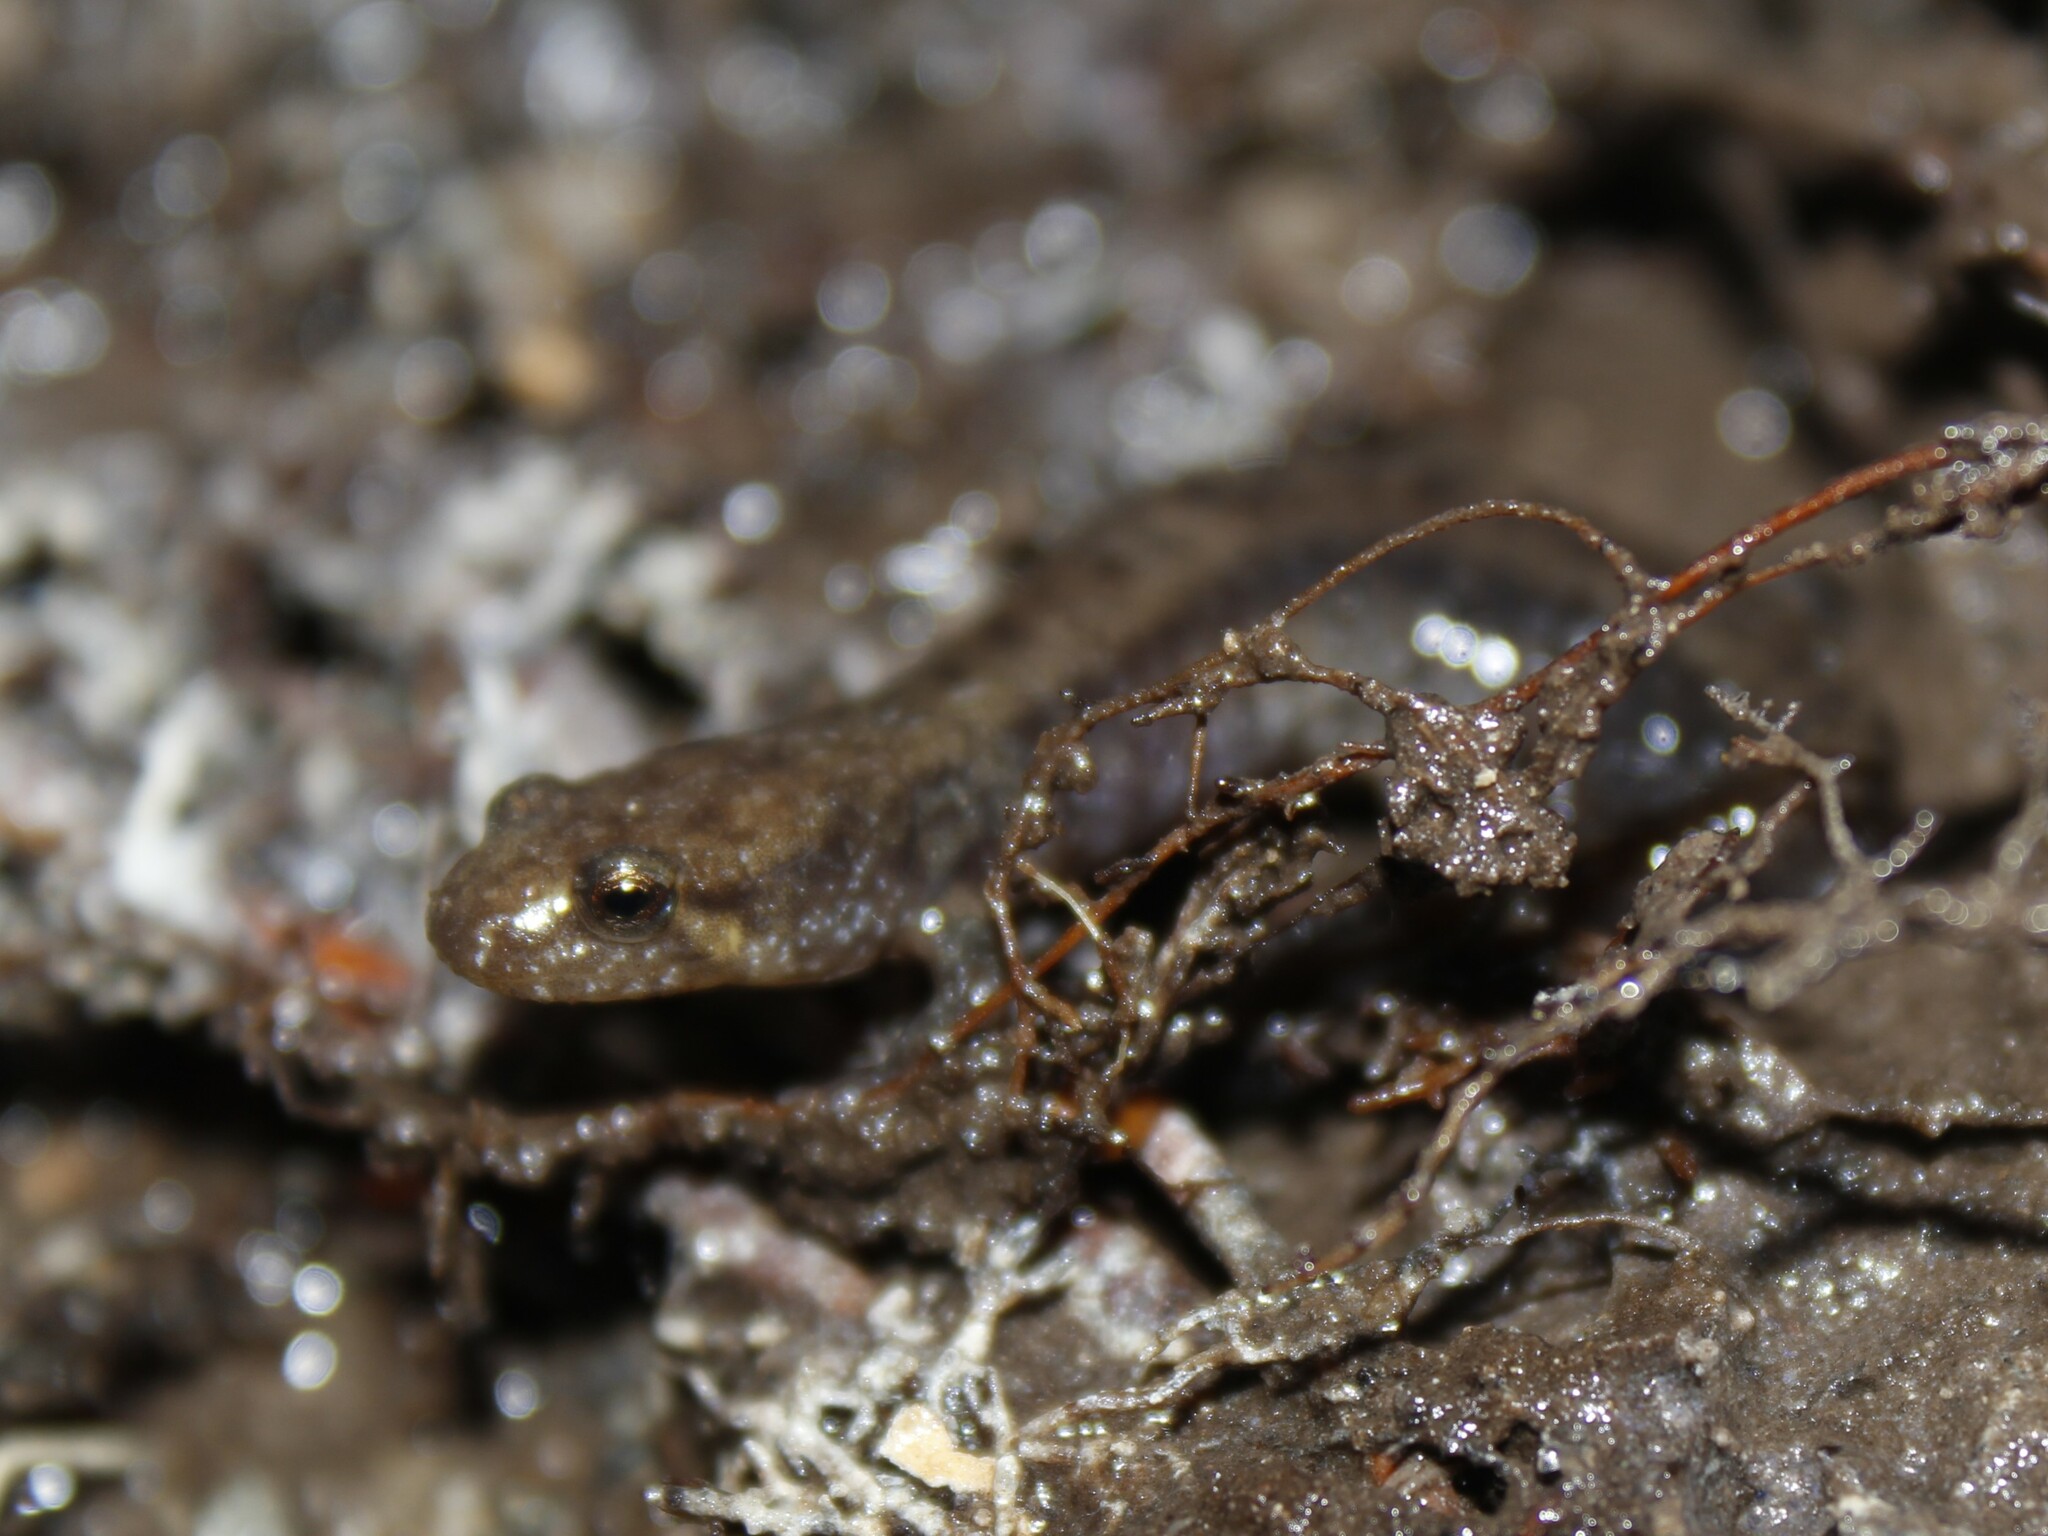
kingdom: Animalia
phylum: Chordata
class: Amphibia
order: Caudata
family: Plethodontidae
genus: Desmognathus
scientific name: Desmognathus ochrophaeus
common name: Allegheny mountain dusky salamander
